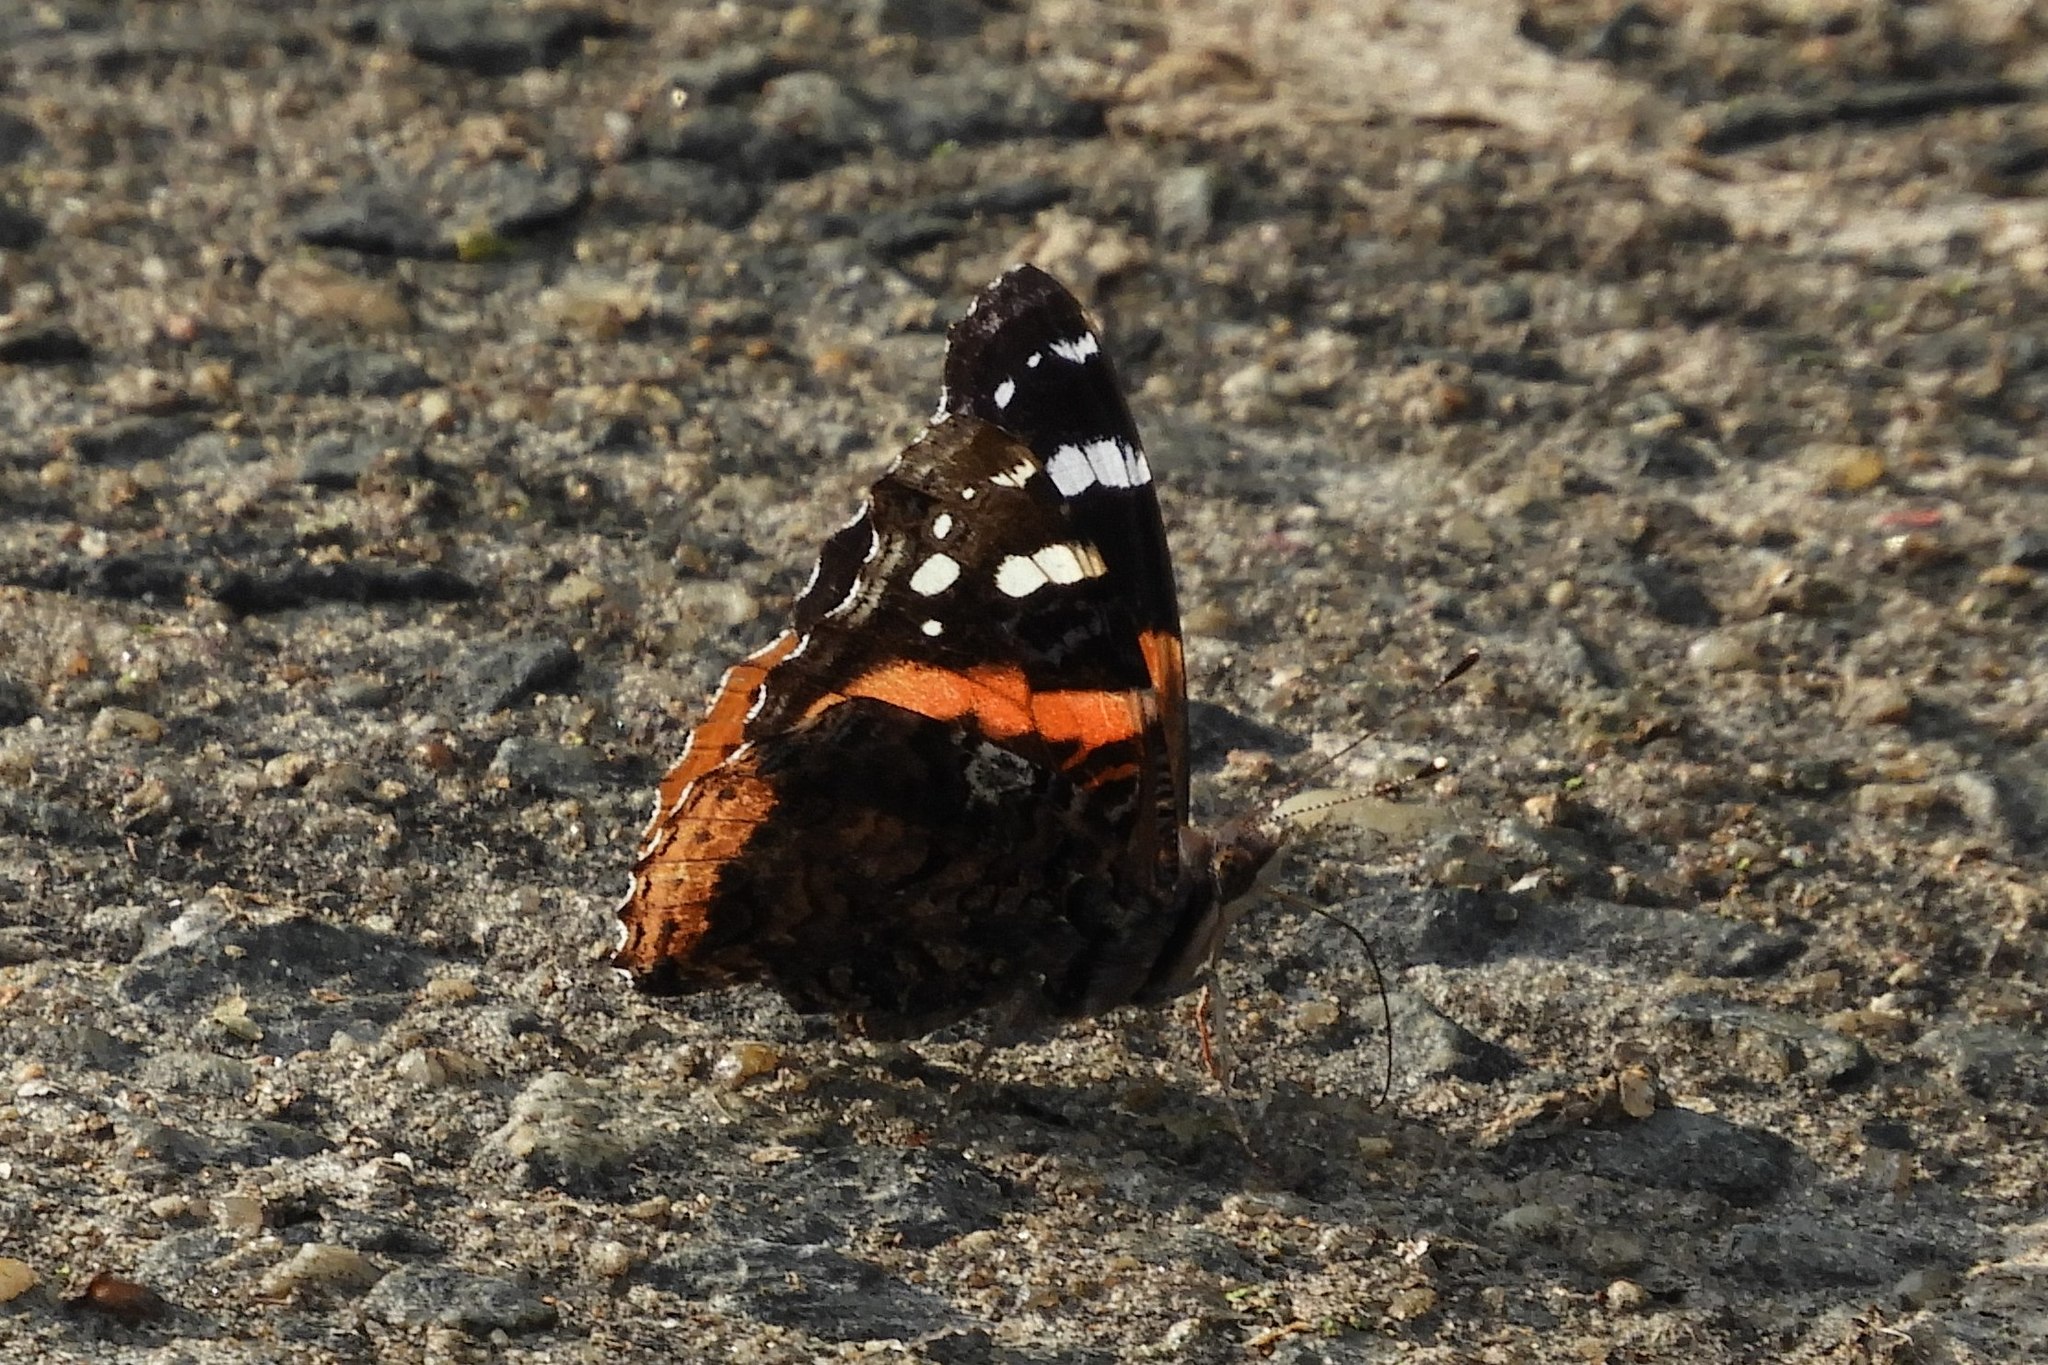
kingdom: Animalia
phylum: Arthropoda
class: Insecta
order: Lepidoptera
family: Nymphalidae
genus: Vanessa
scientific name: Vanessa atalanta
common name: Red admiral
